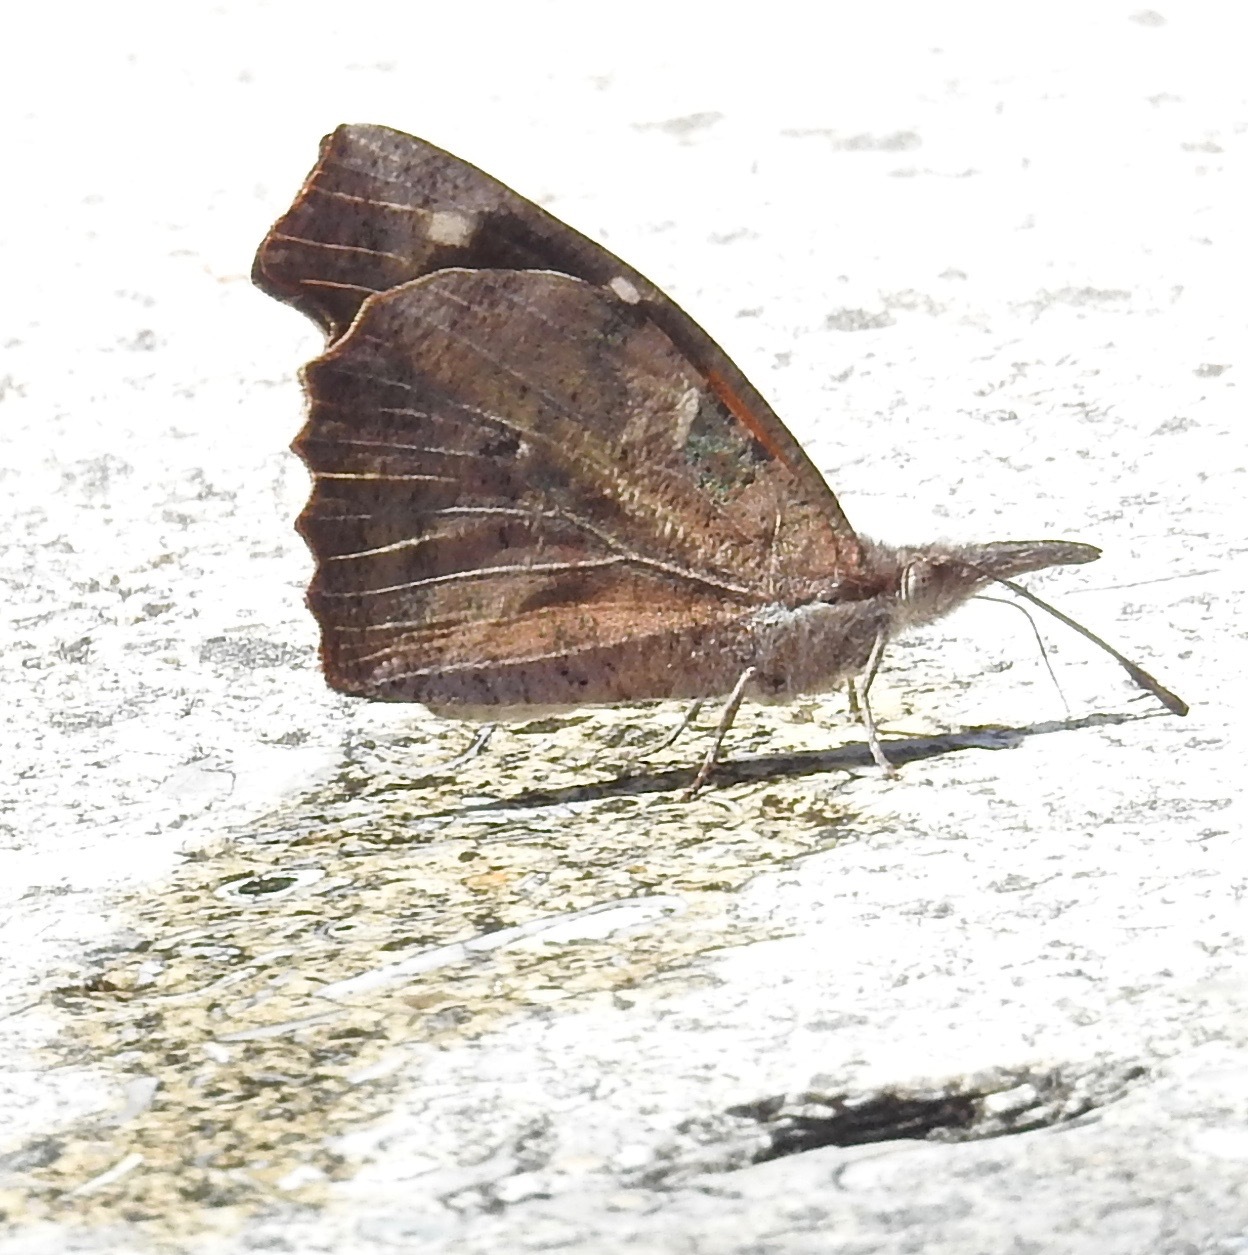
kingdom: Animalia
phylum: Arthropoda
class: Insecta
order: Lepidoptera
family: Nymphalidae
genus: Libytheana
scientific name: Libytheana carinenta
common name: American snout
